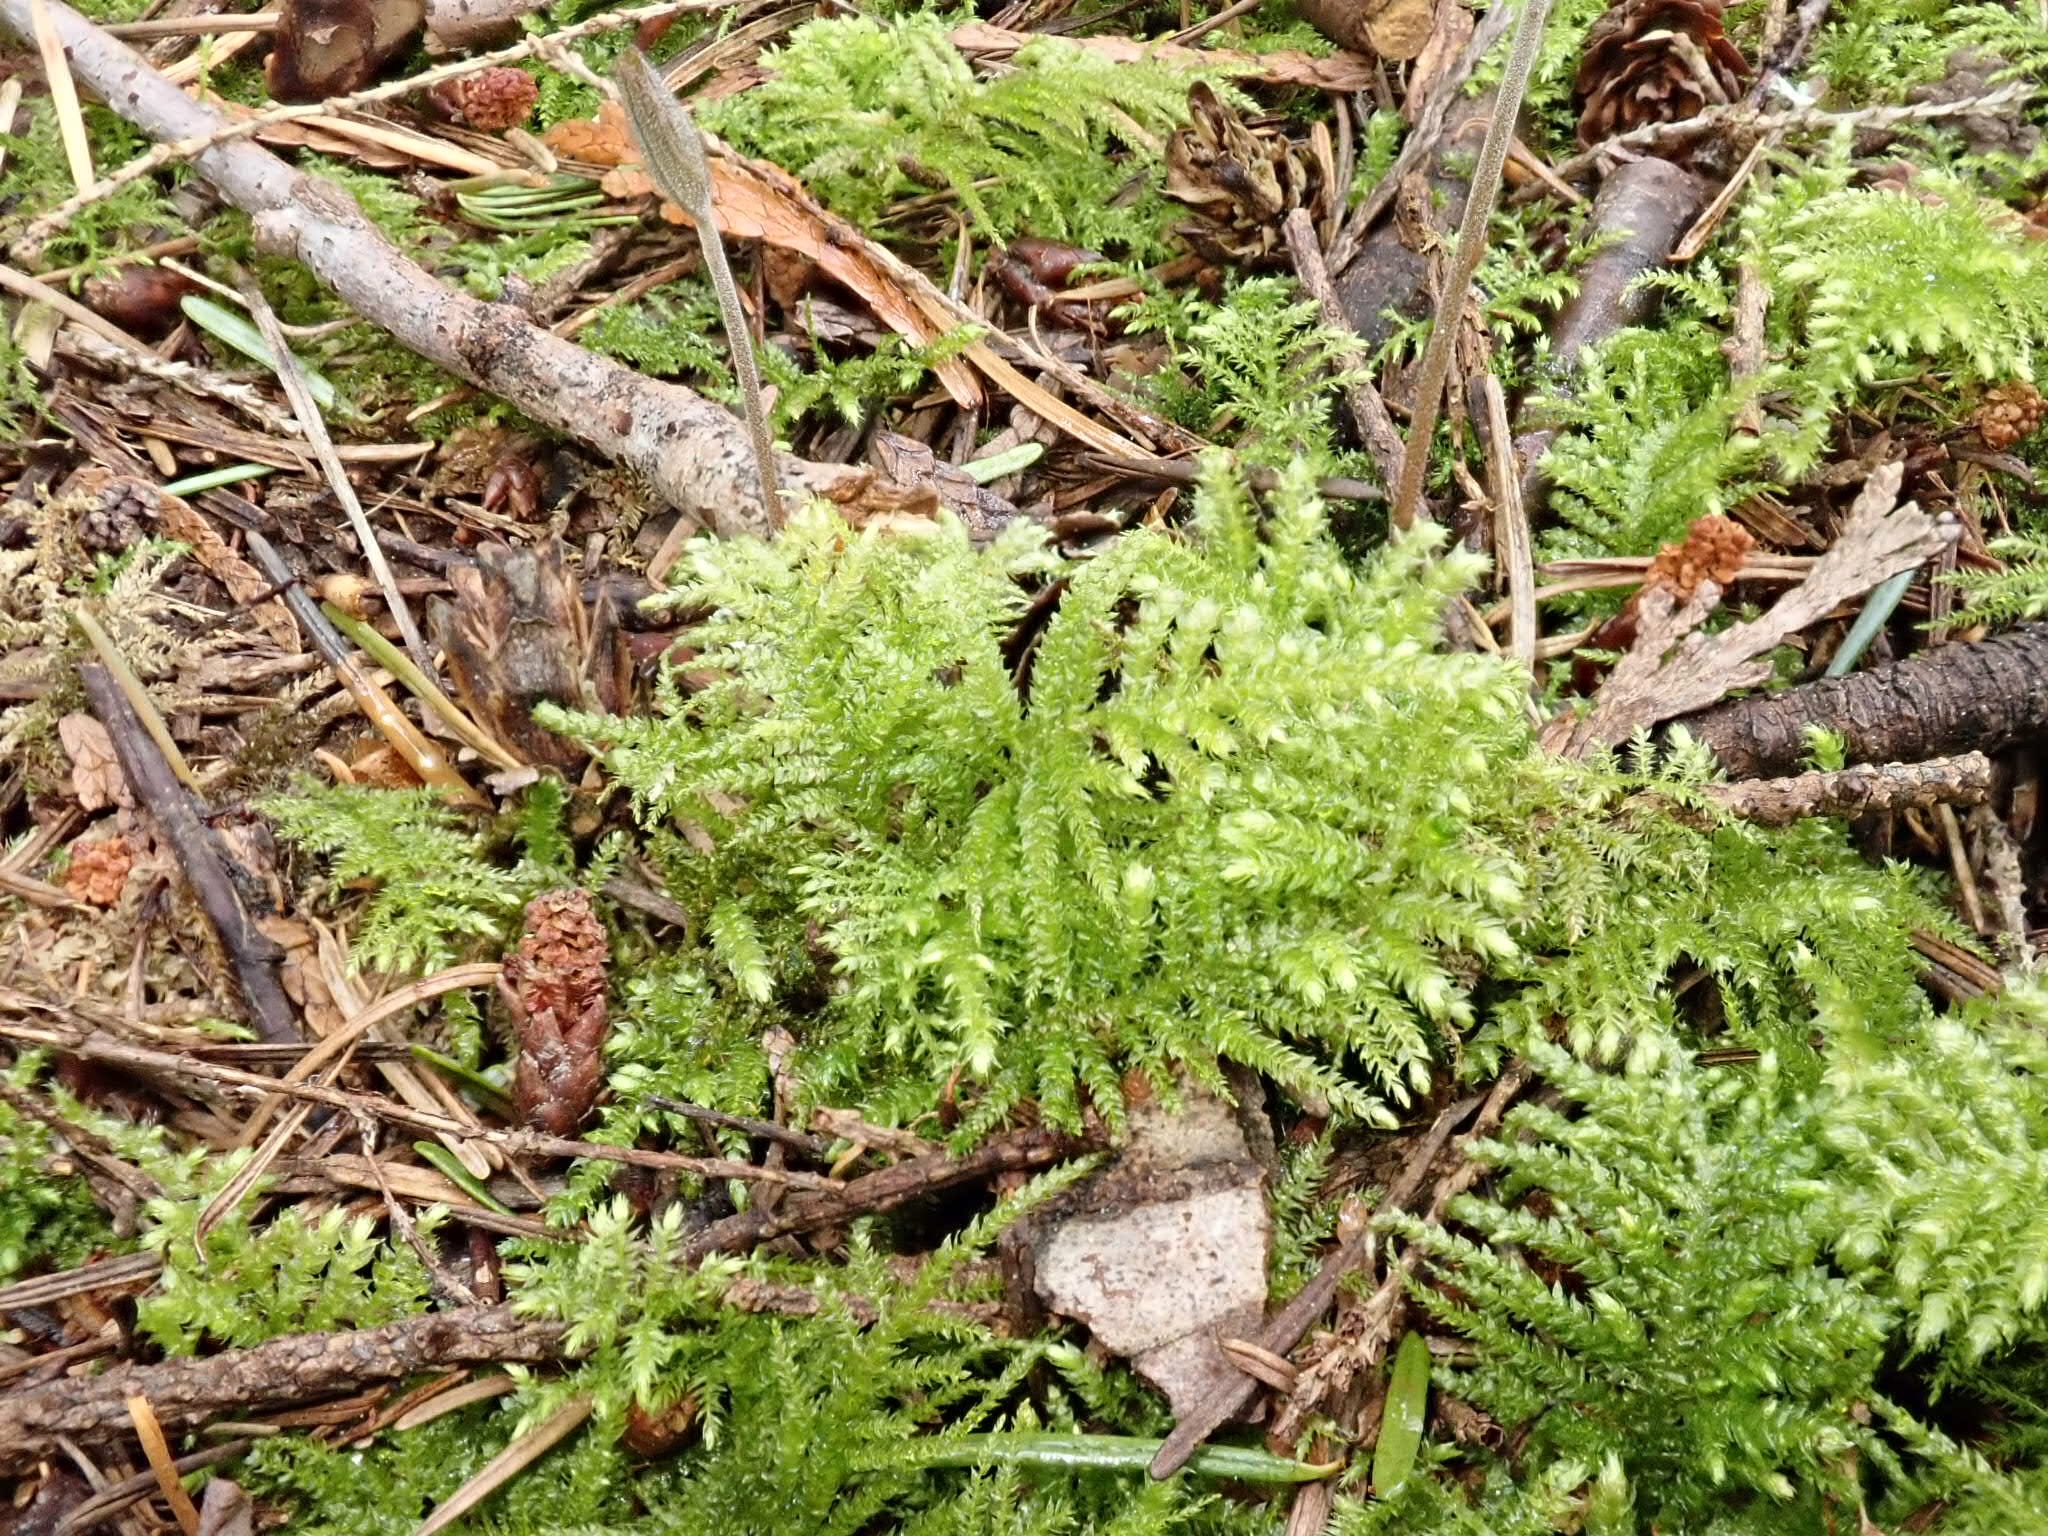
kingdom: Plantae
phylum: Bryophyta
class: Bryopsida
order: Hypnales
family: Brachytheciaceae
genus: Kindbergia
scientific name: Kindbergia oregana
